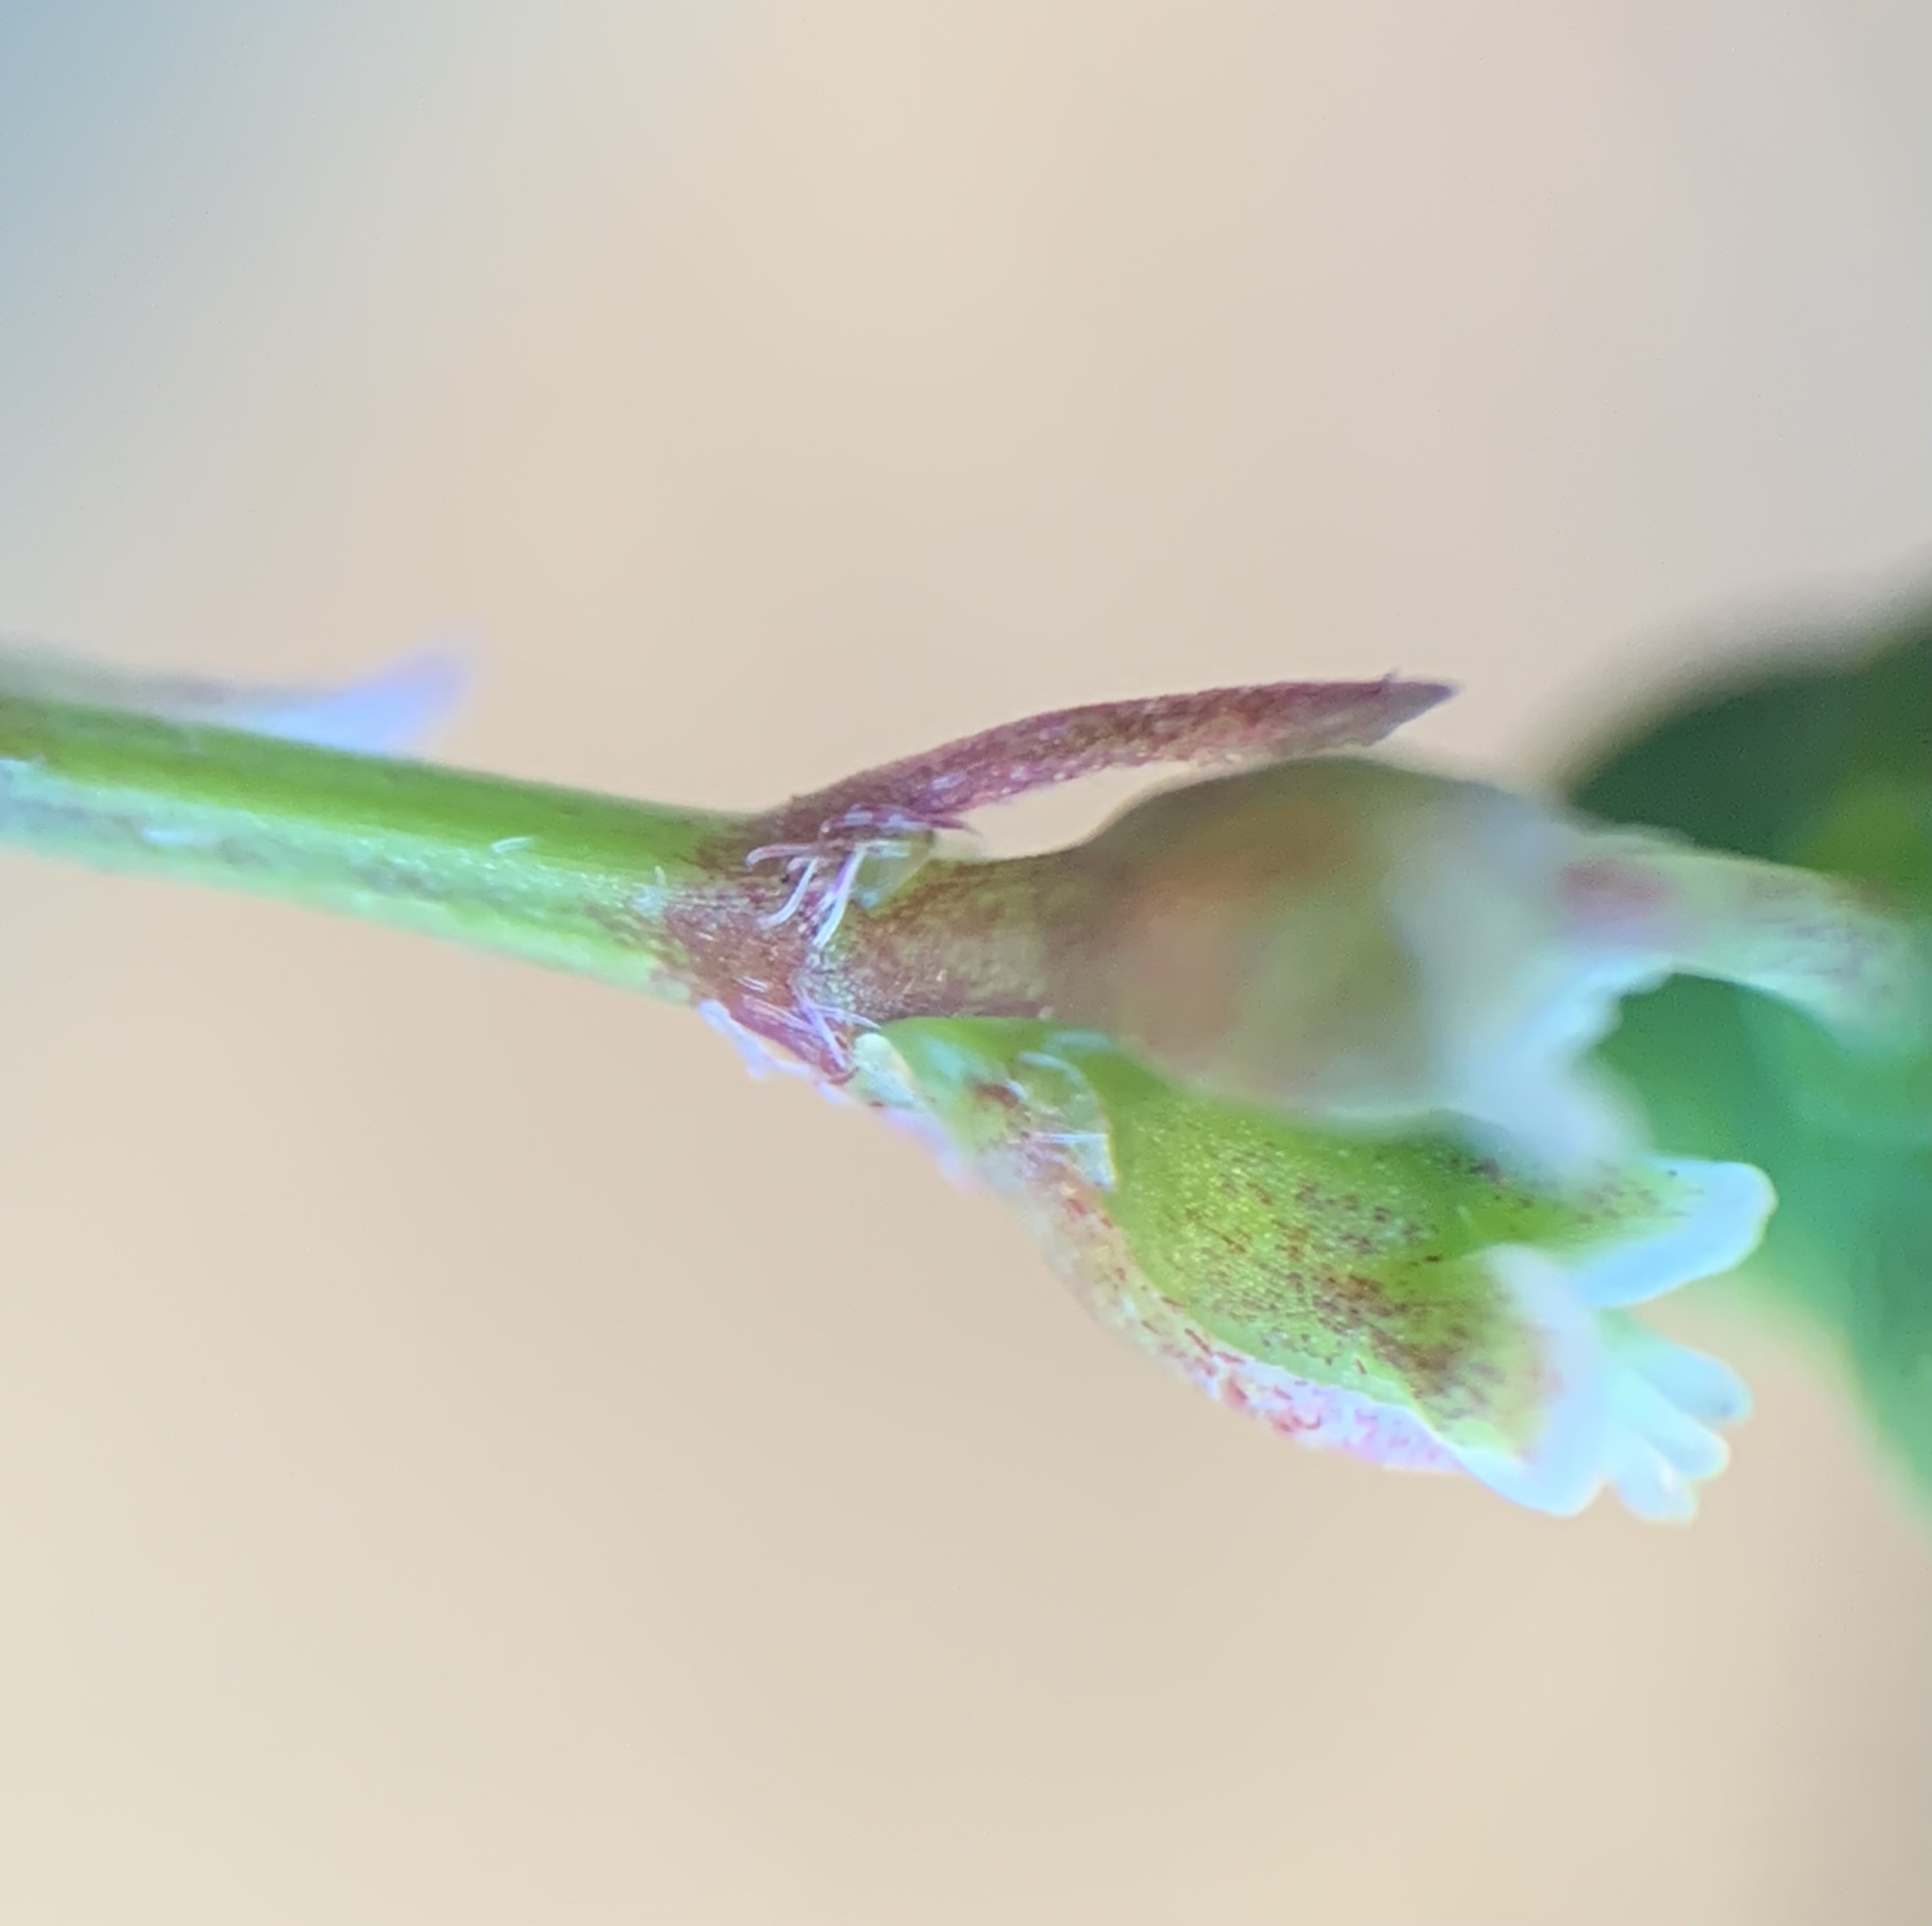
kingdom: Plantae
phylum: Tracheophyta
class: Magnoliopsida
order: Malpighiales
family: Euphorbiaceae
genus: Euphorbia
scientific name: Euphorbia graminea
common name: Grassleaf spurge
